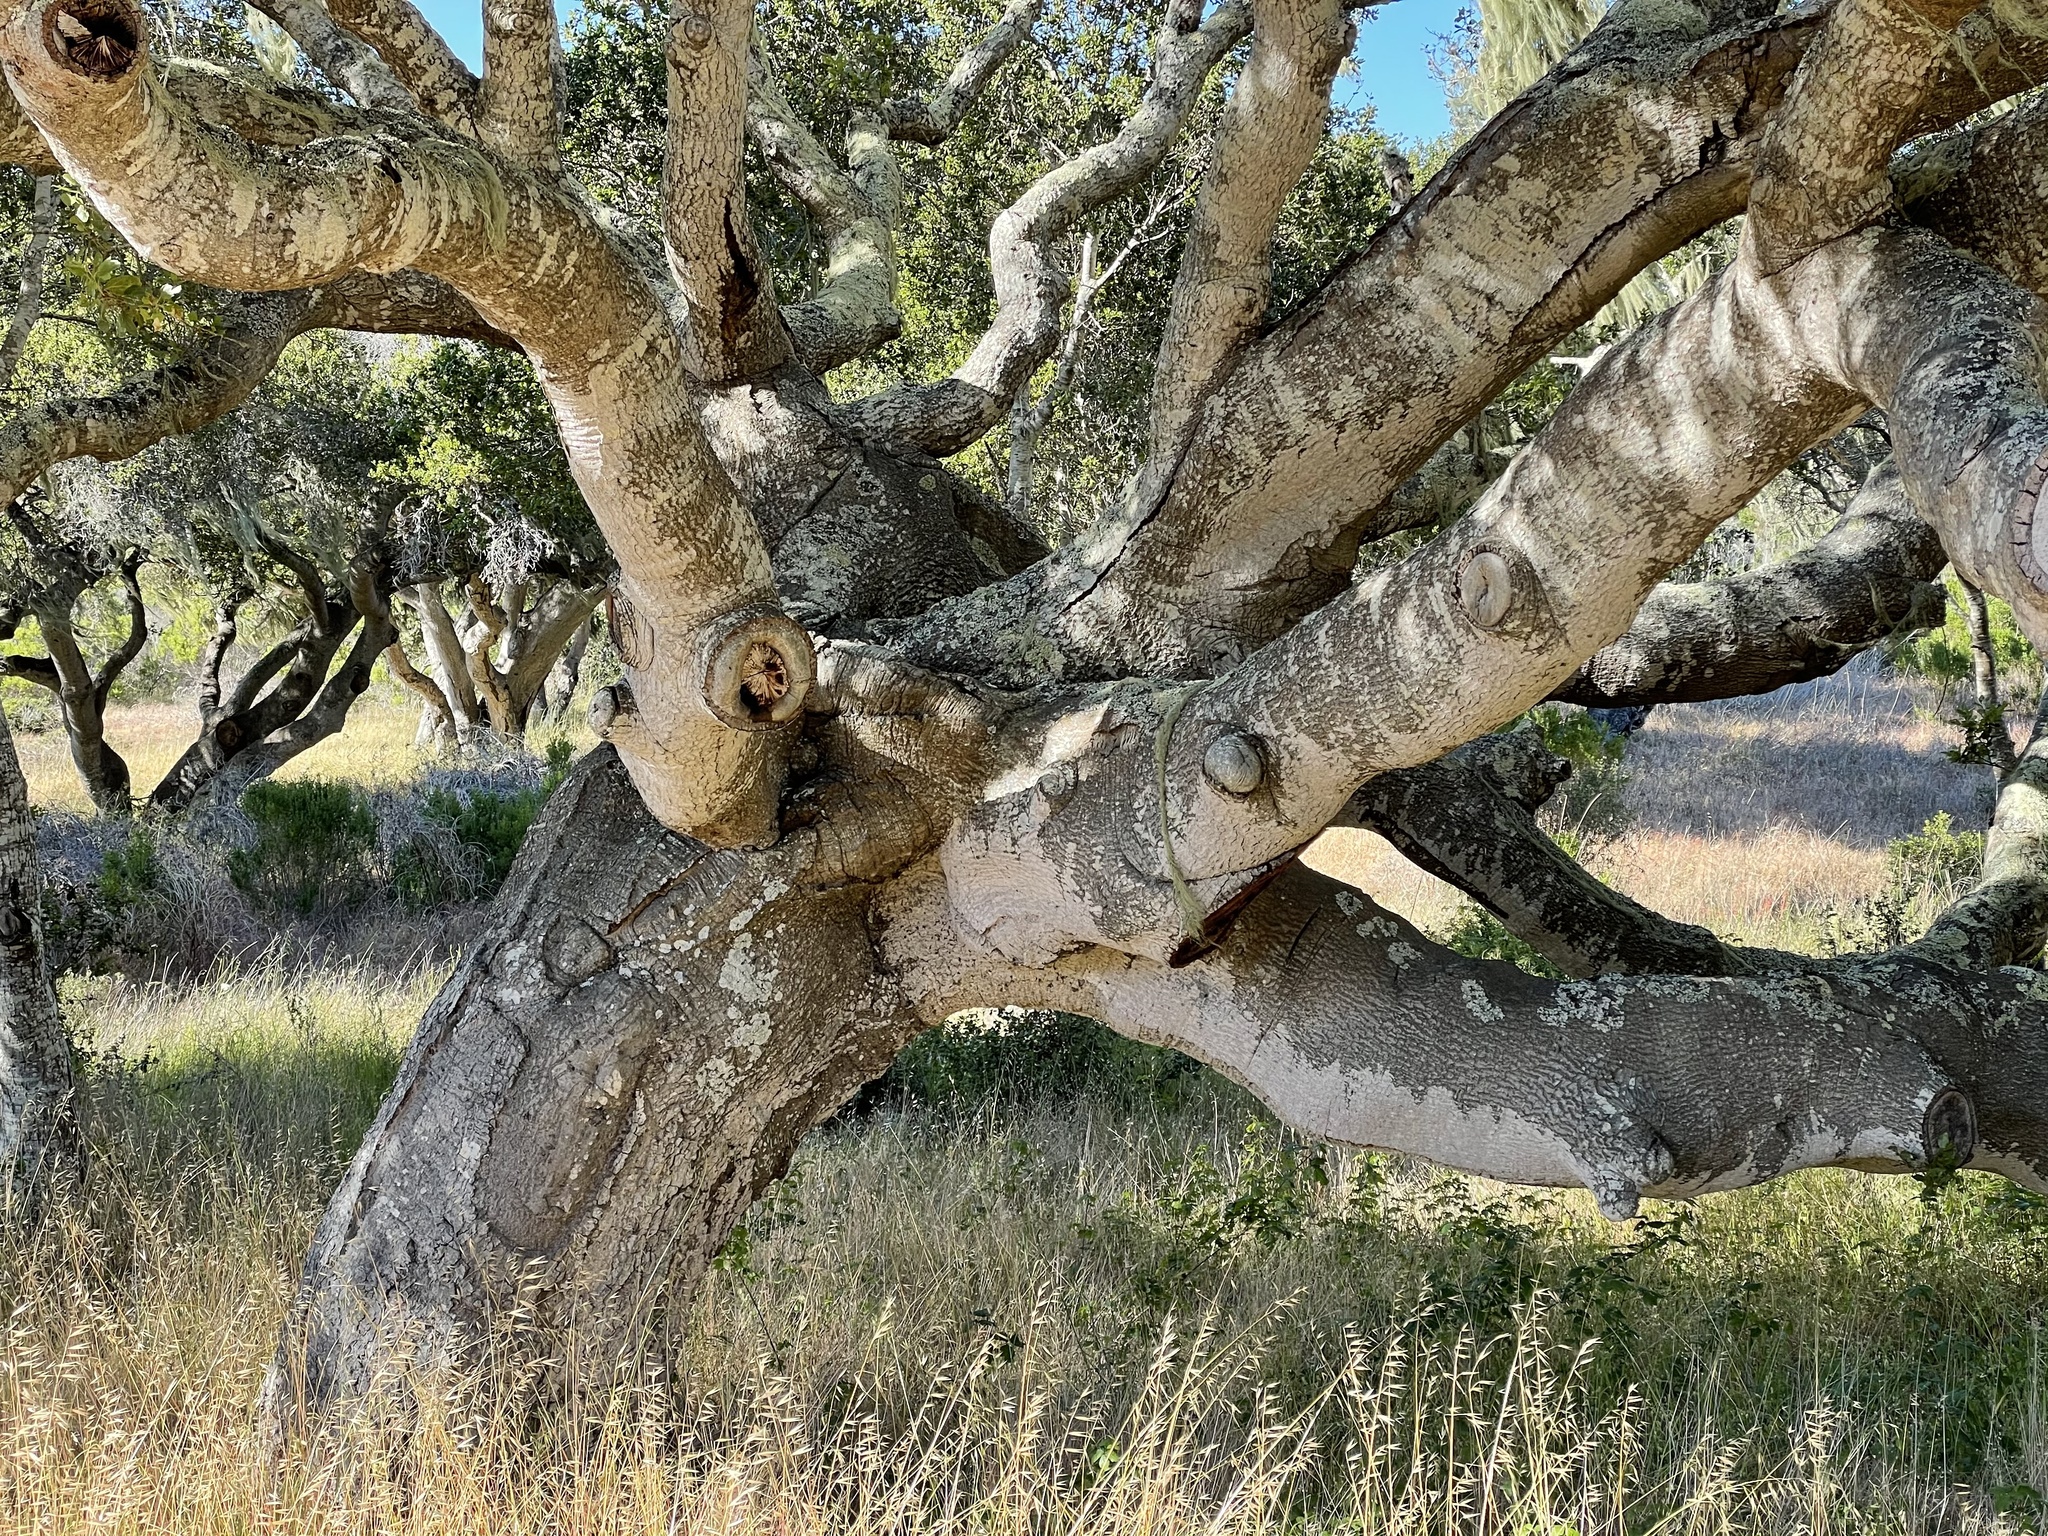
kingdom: Plantae
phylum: Tracheophyta
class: Magnoliopsida
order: Fagales
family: Fagaceae
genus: Quercus
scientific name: Quercus agrifolia
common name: California live oak
